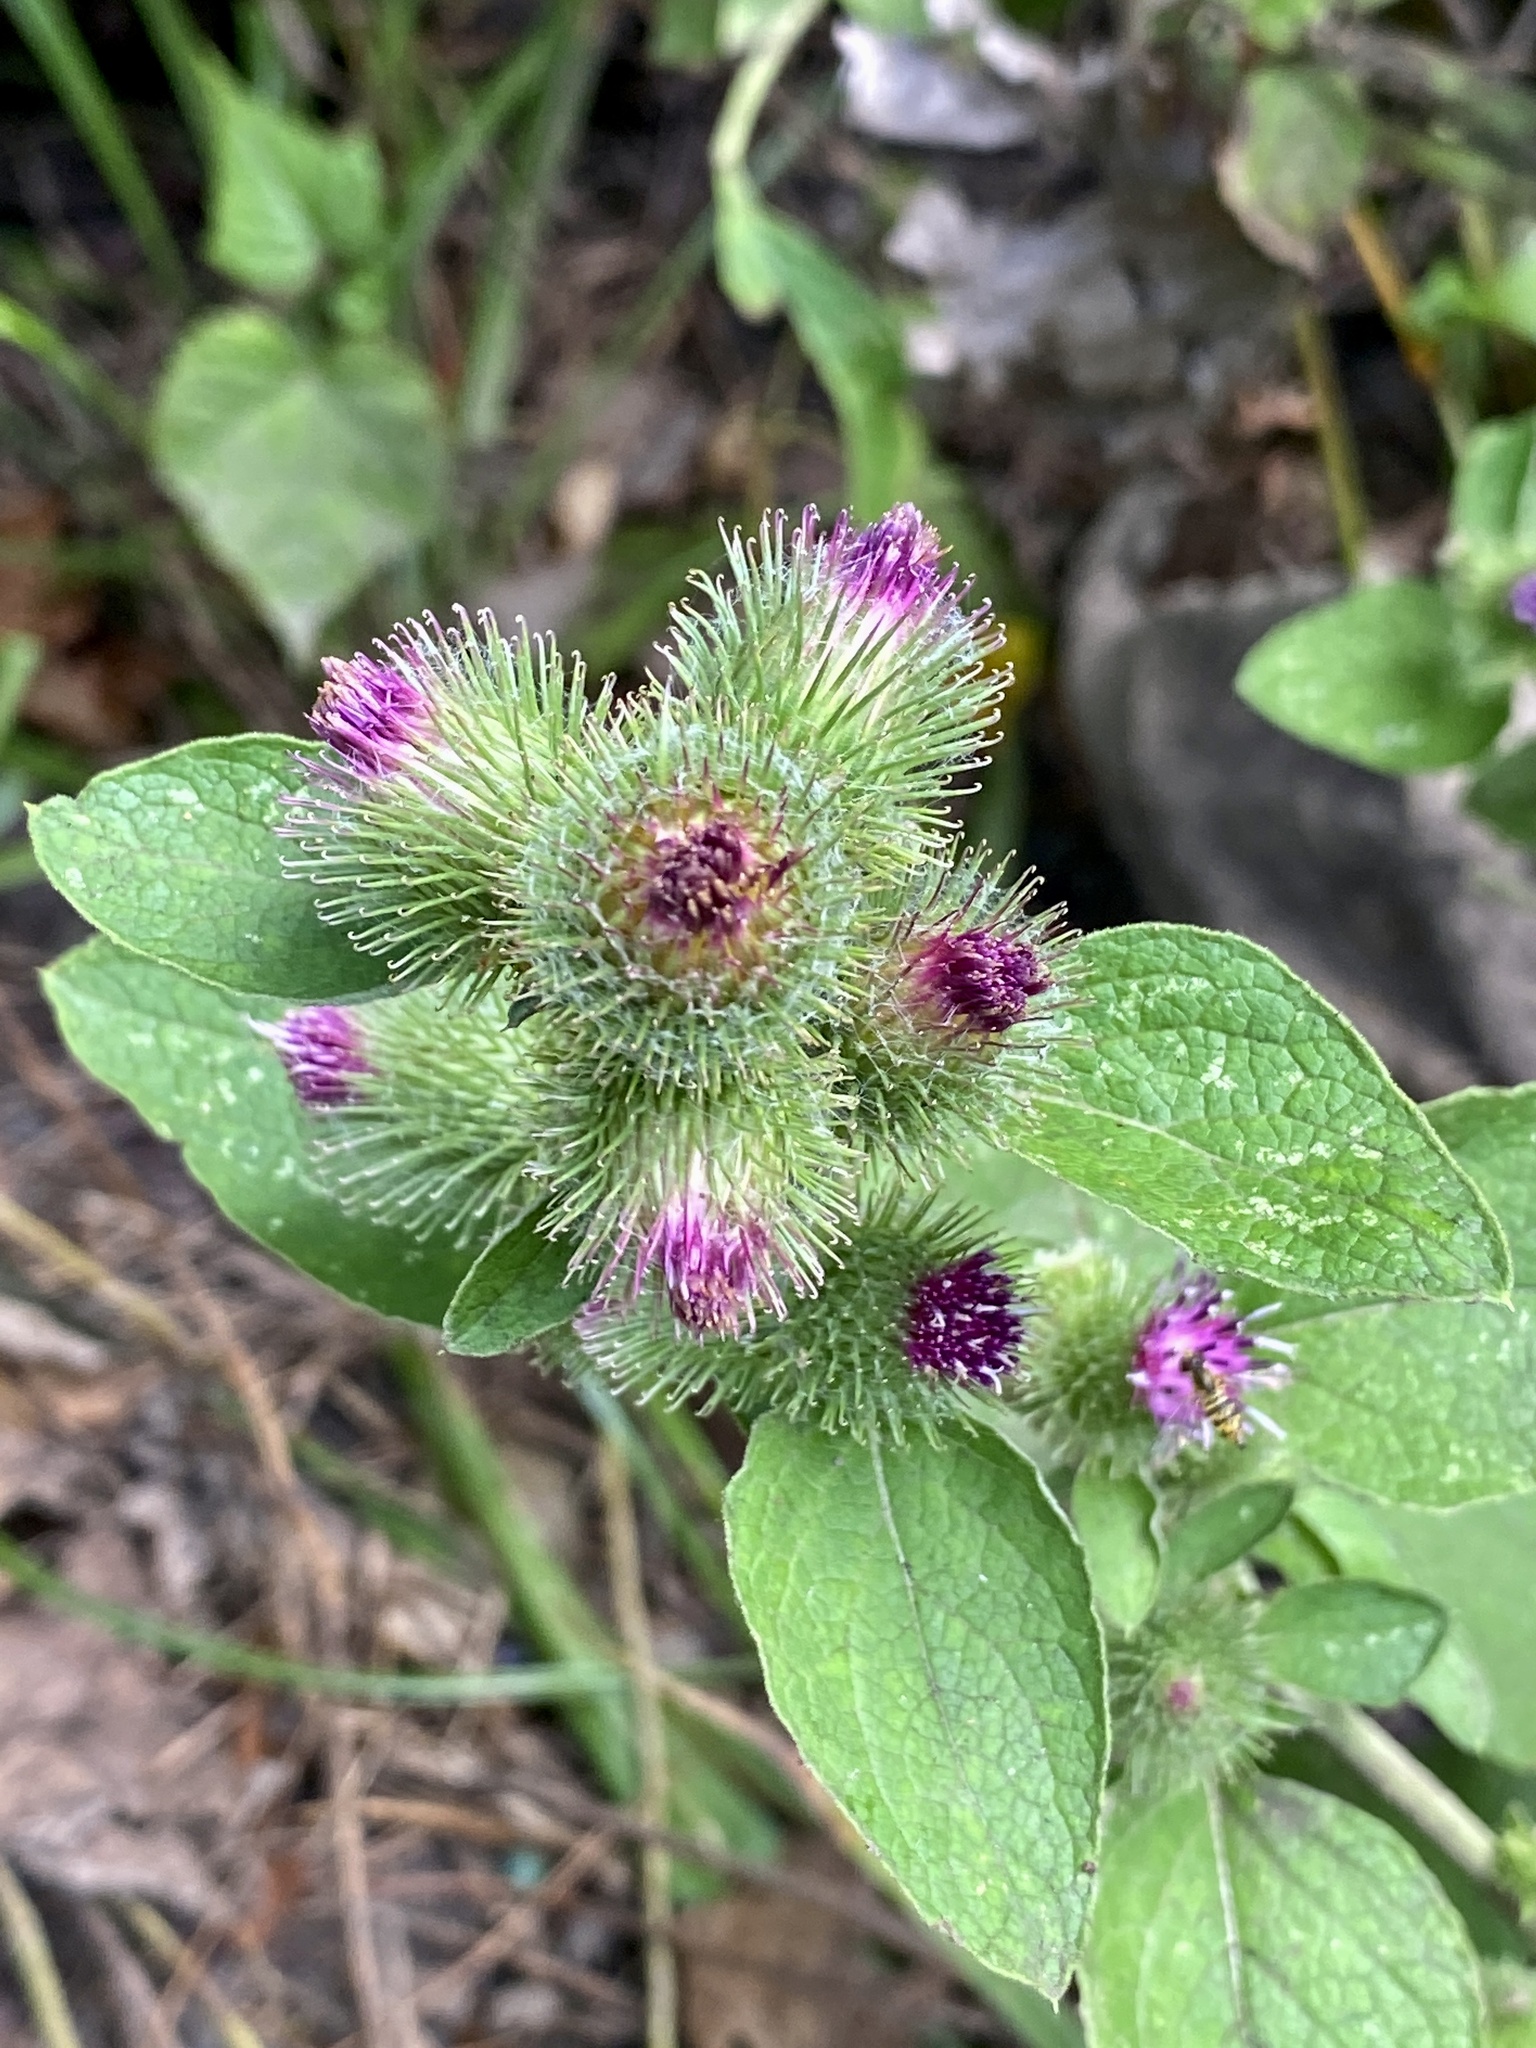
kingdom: Plantae
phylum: Tracheophyta
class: Magnoliopsida
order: Asterales
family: Asteraceae
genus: Arctium
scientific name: Arctium minus
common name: Lesser burdock
